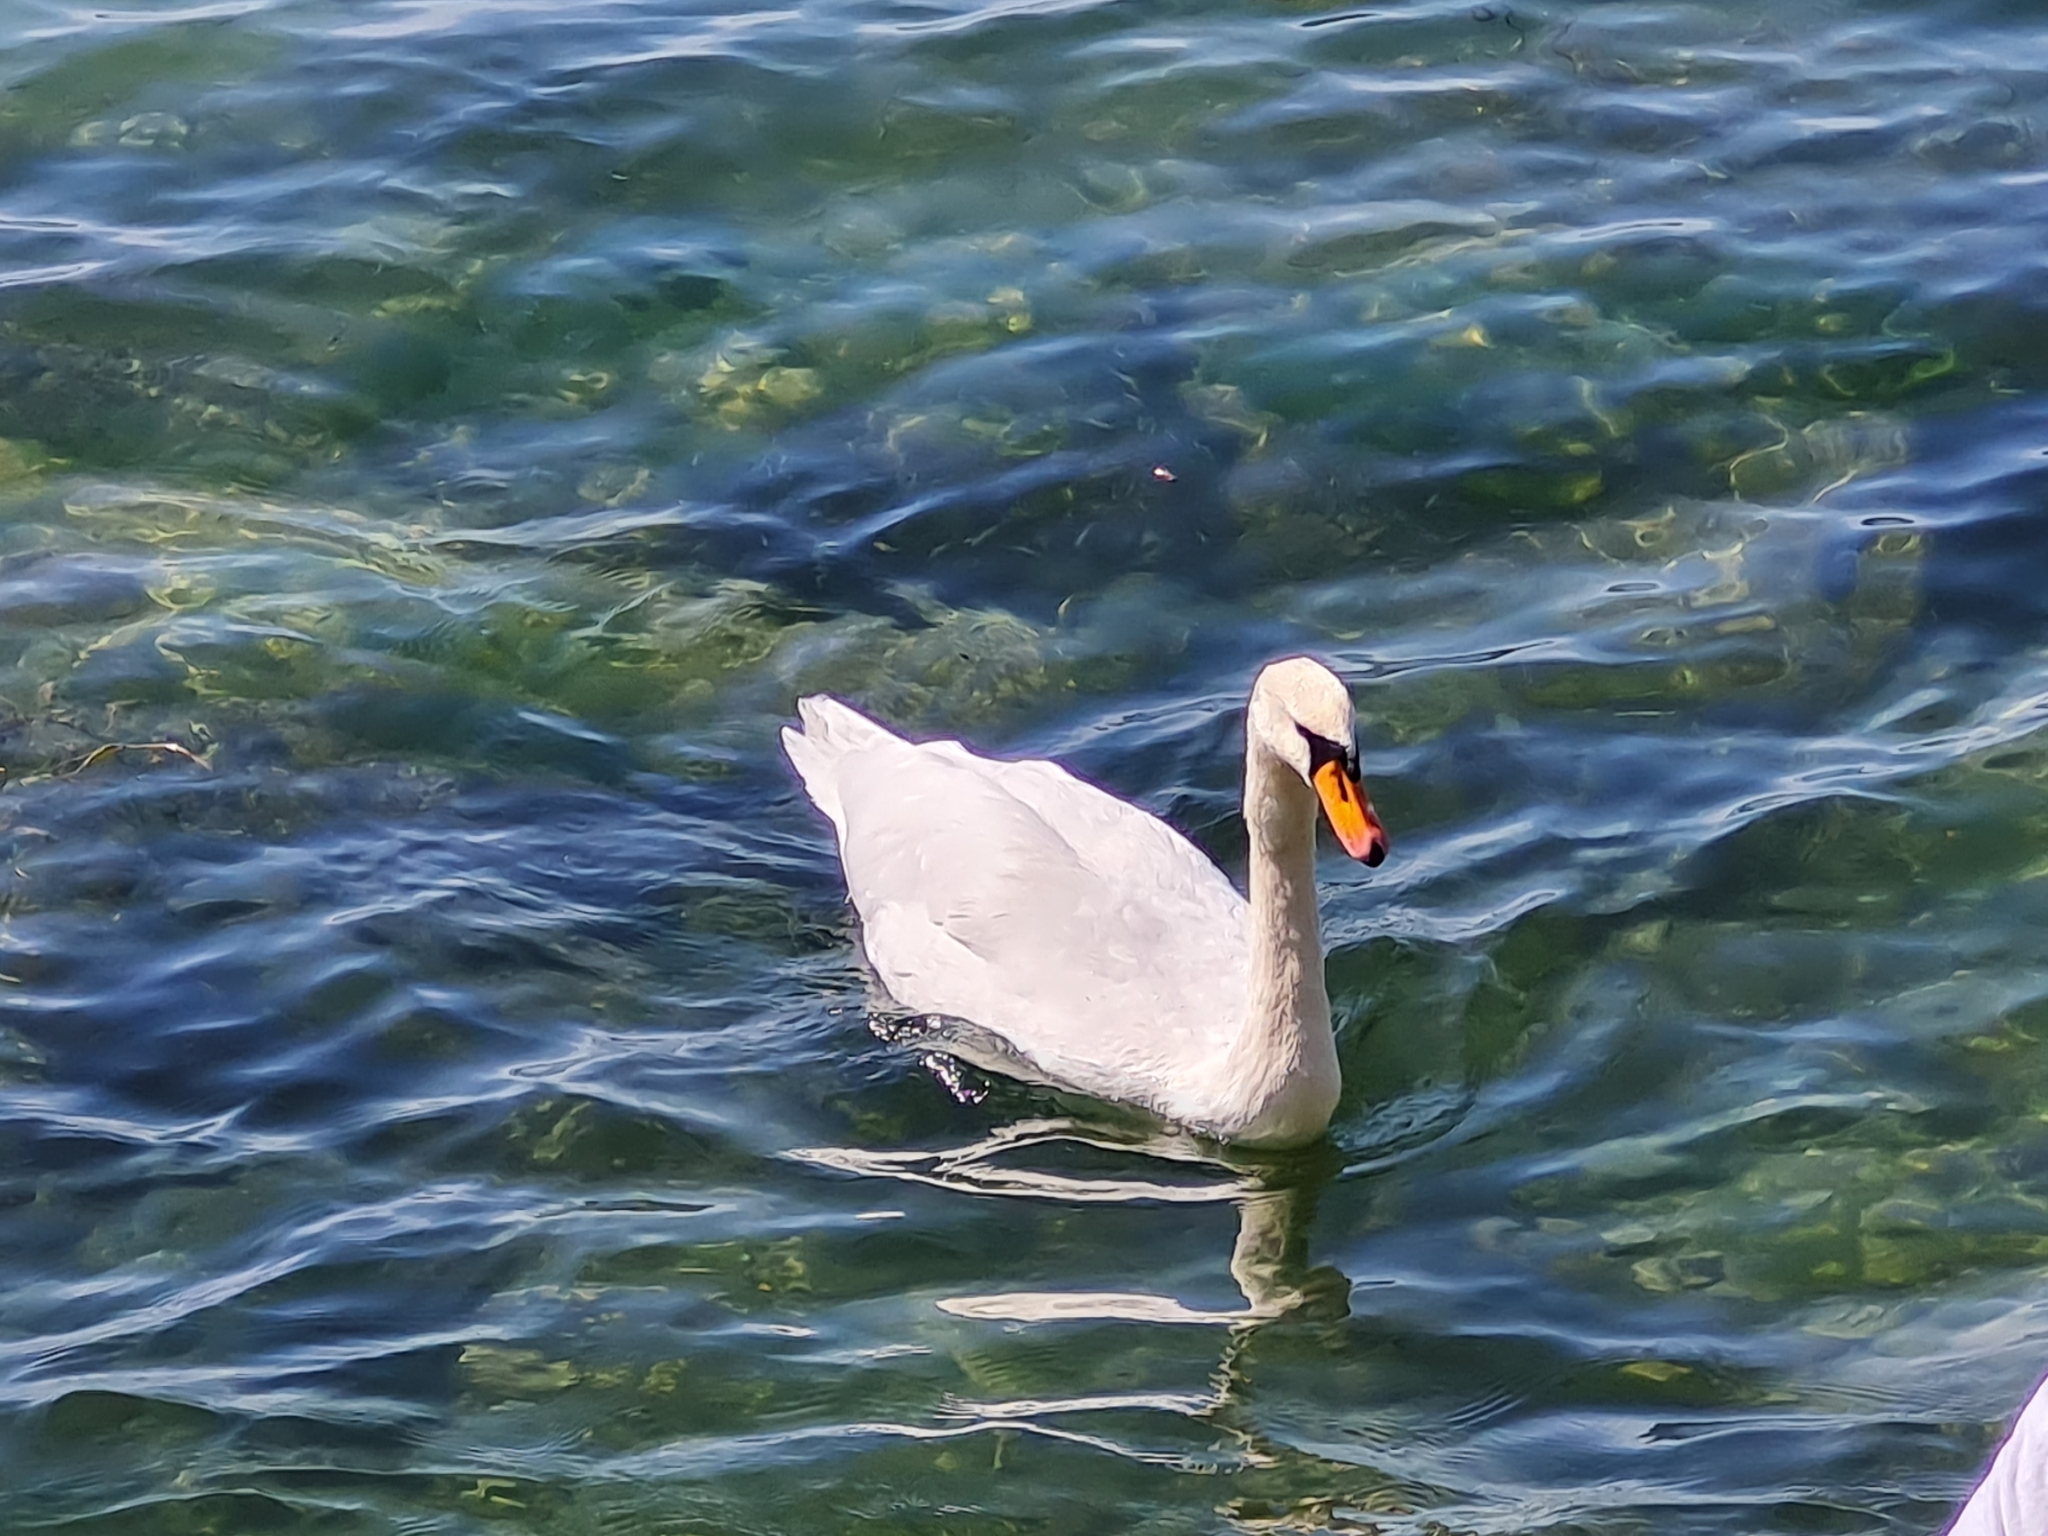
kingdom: Animalia
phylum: Chordata
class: Aves
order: Anseriformes
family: Anatidae
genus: Cygnus
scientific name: Cygnus olor
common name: Mute swan
